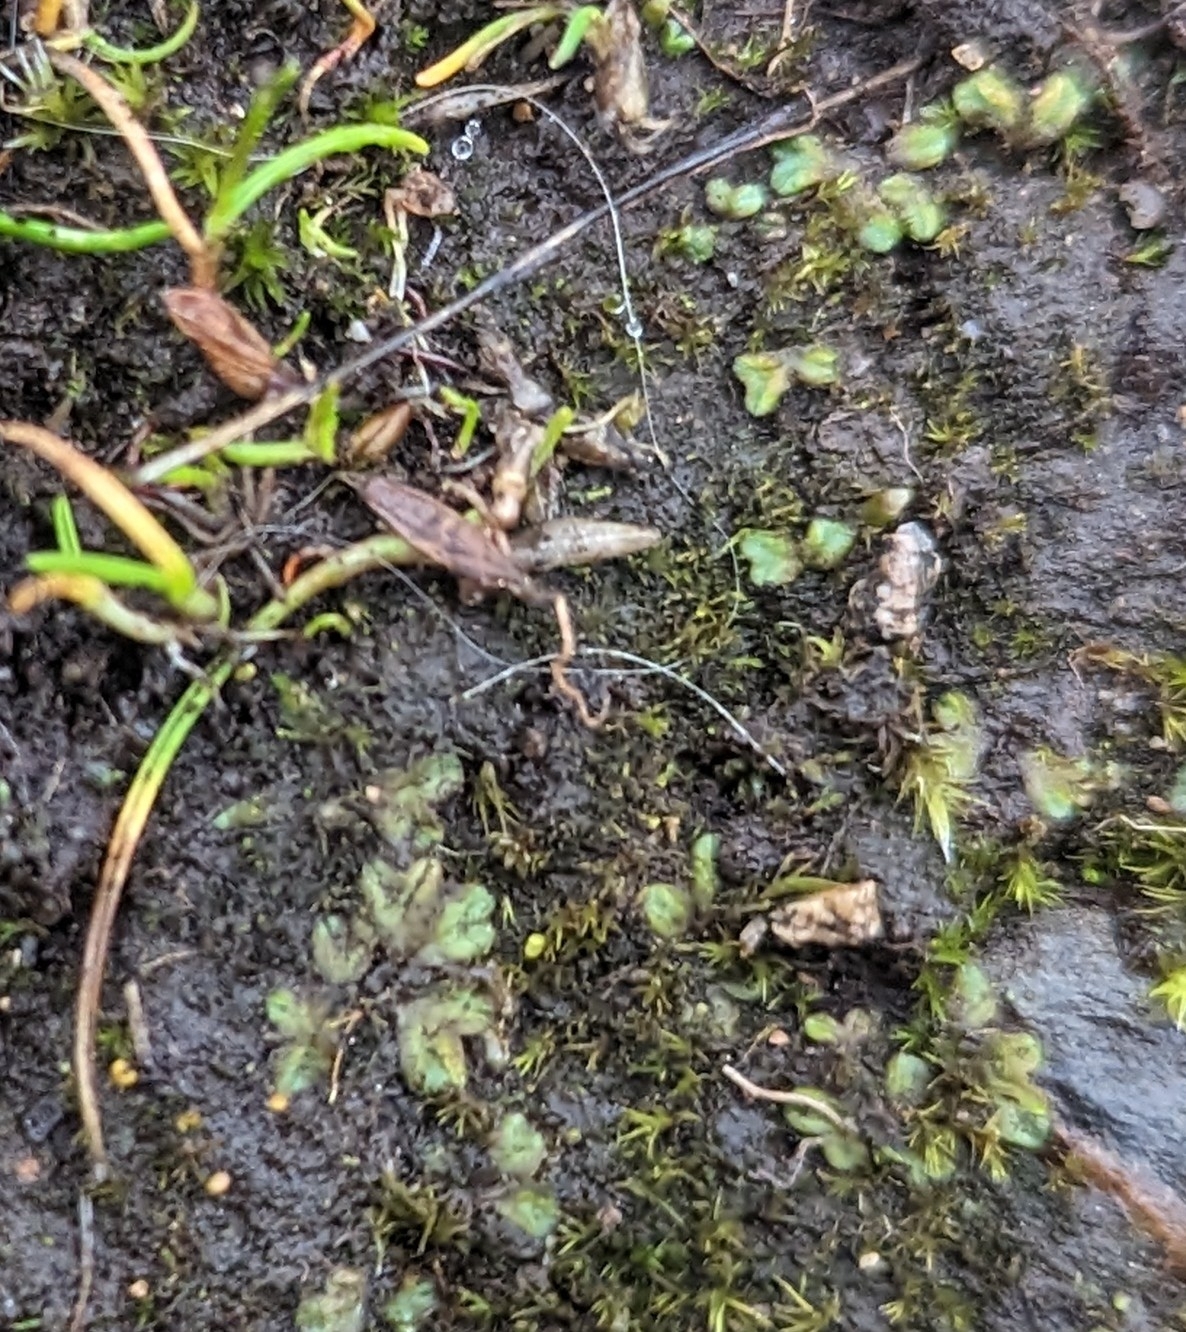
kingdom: Plantae
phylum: Marchantiophyta
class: Marchantiopsida
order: Marchantiales
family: Ricciaceae
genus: Riccia
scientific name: Riccia sorocarpa
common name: Common crystalwort
